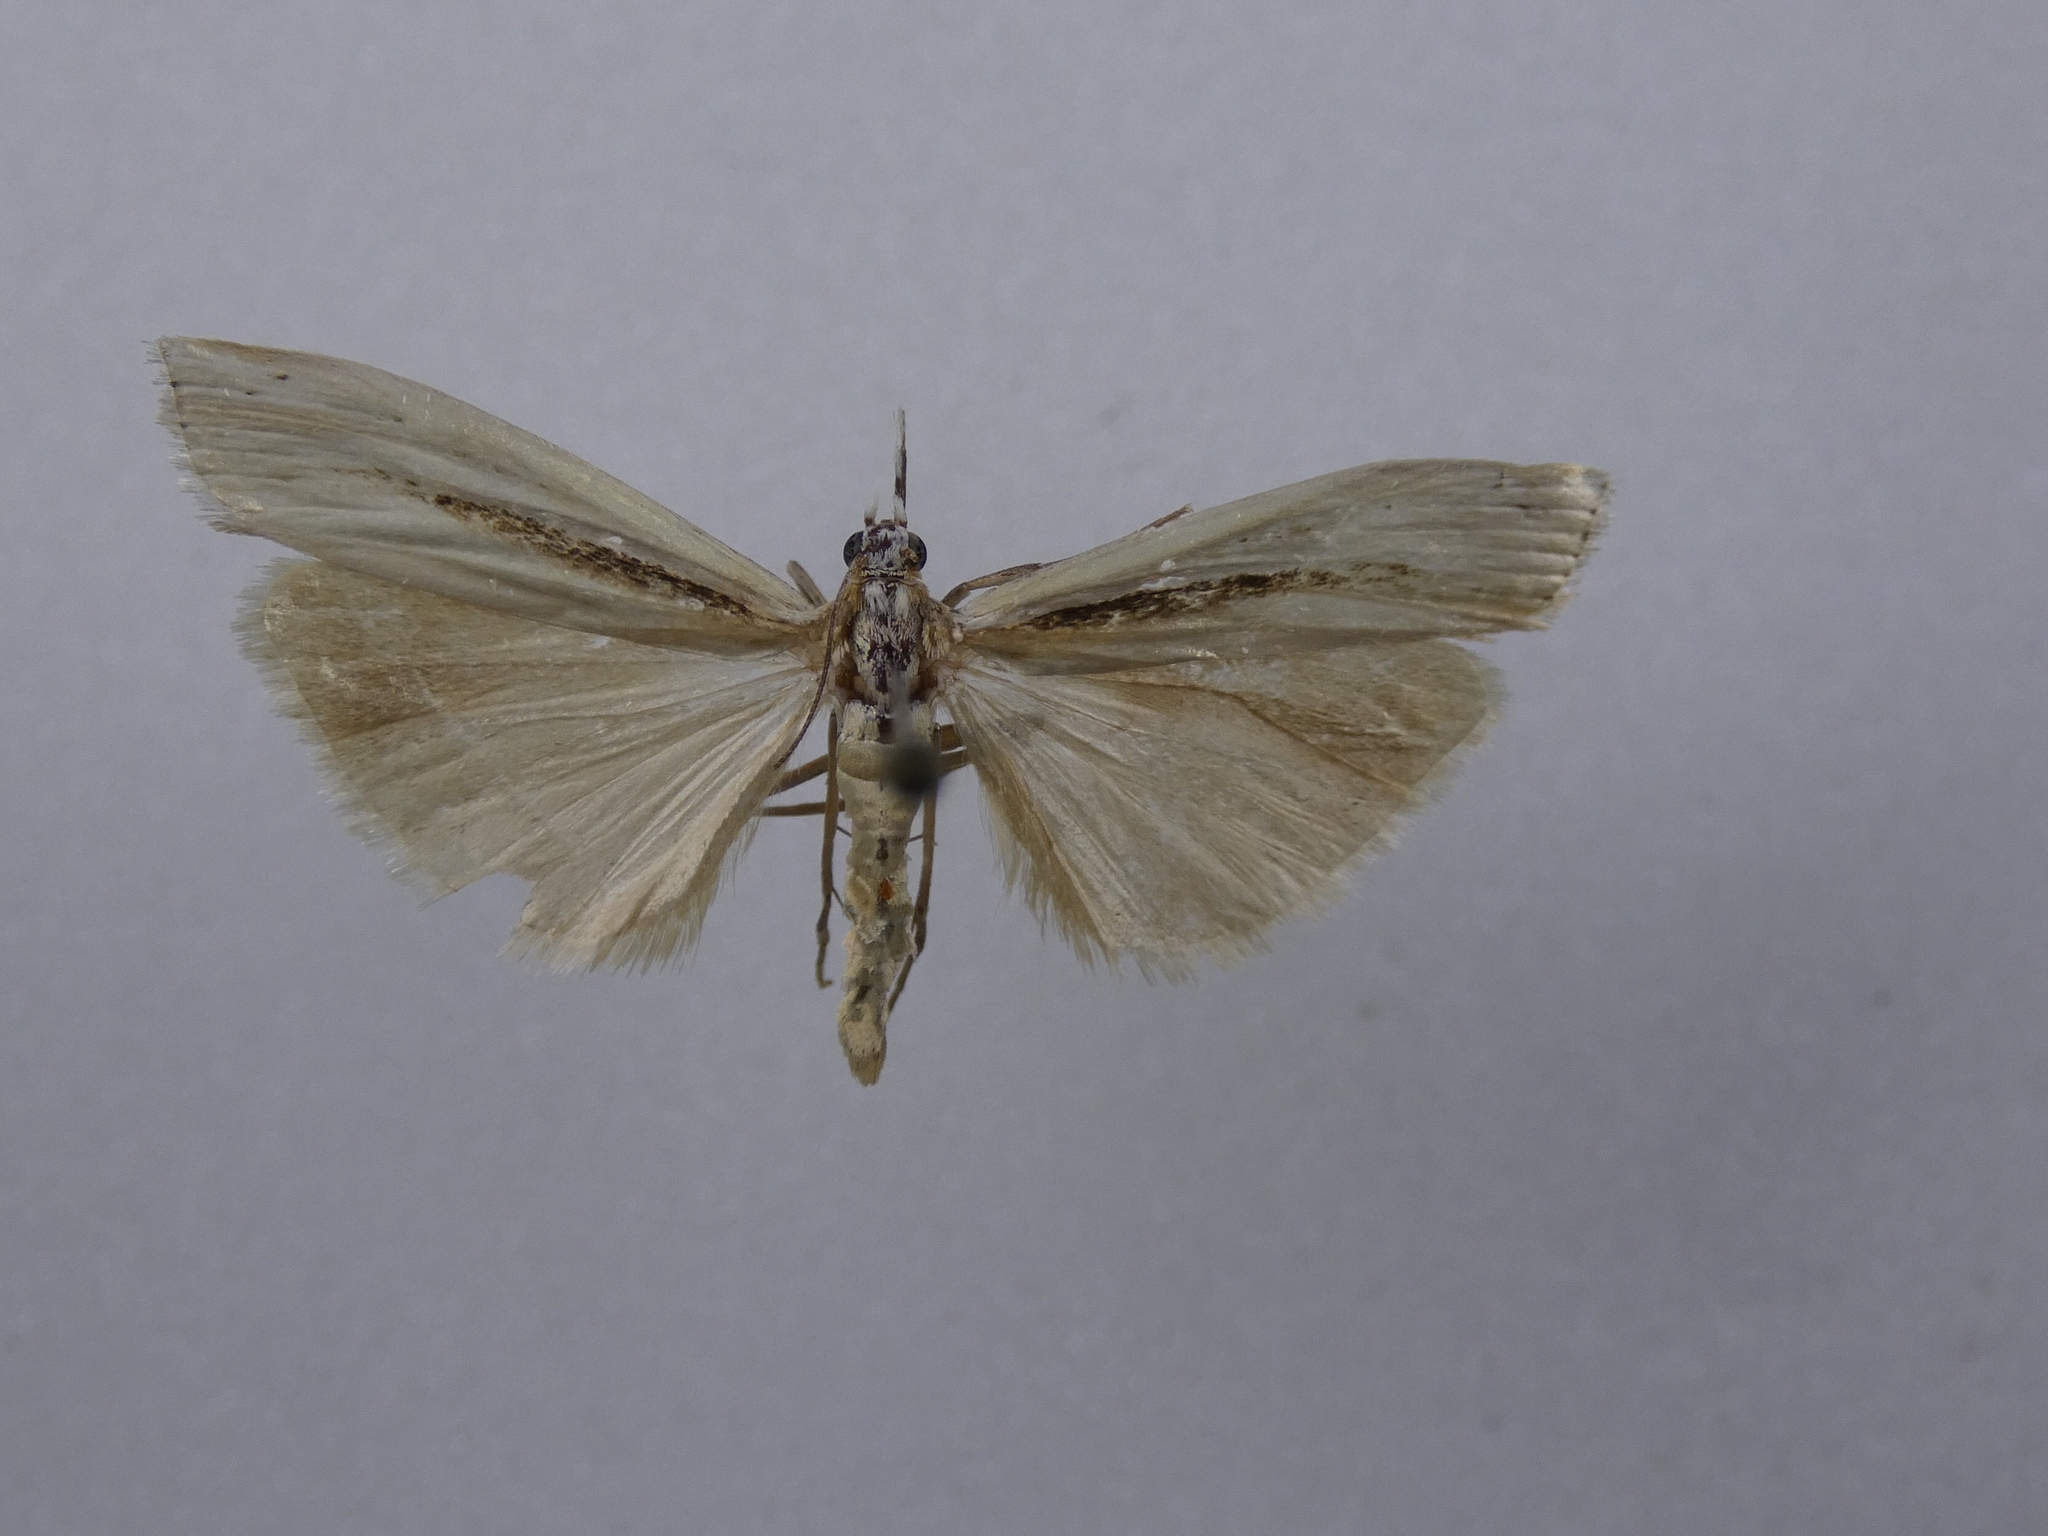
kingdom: Animalia
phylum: Arthropoda
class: Insecta
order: Lepidoptera
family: Crambidae
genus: Orocrambus
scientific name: Orocrambus ramosellus
